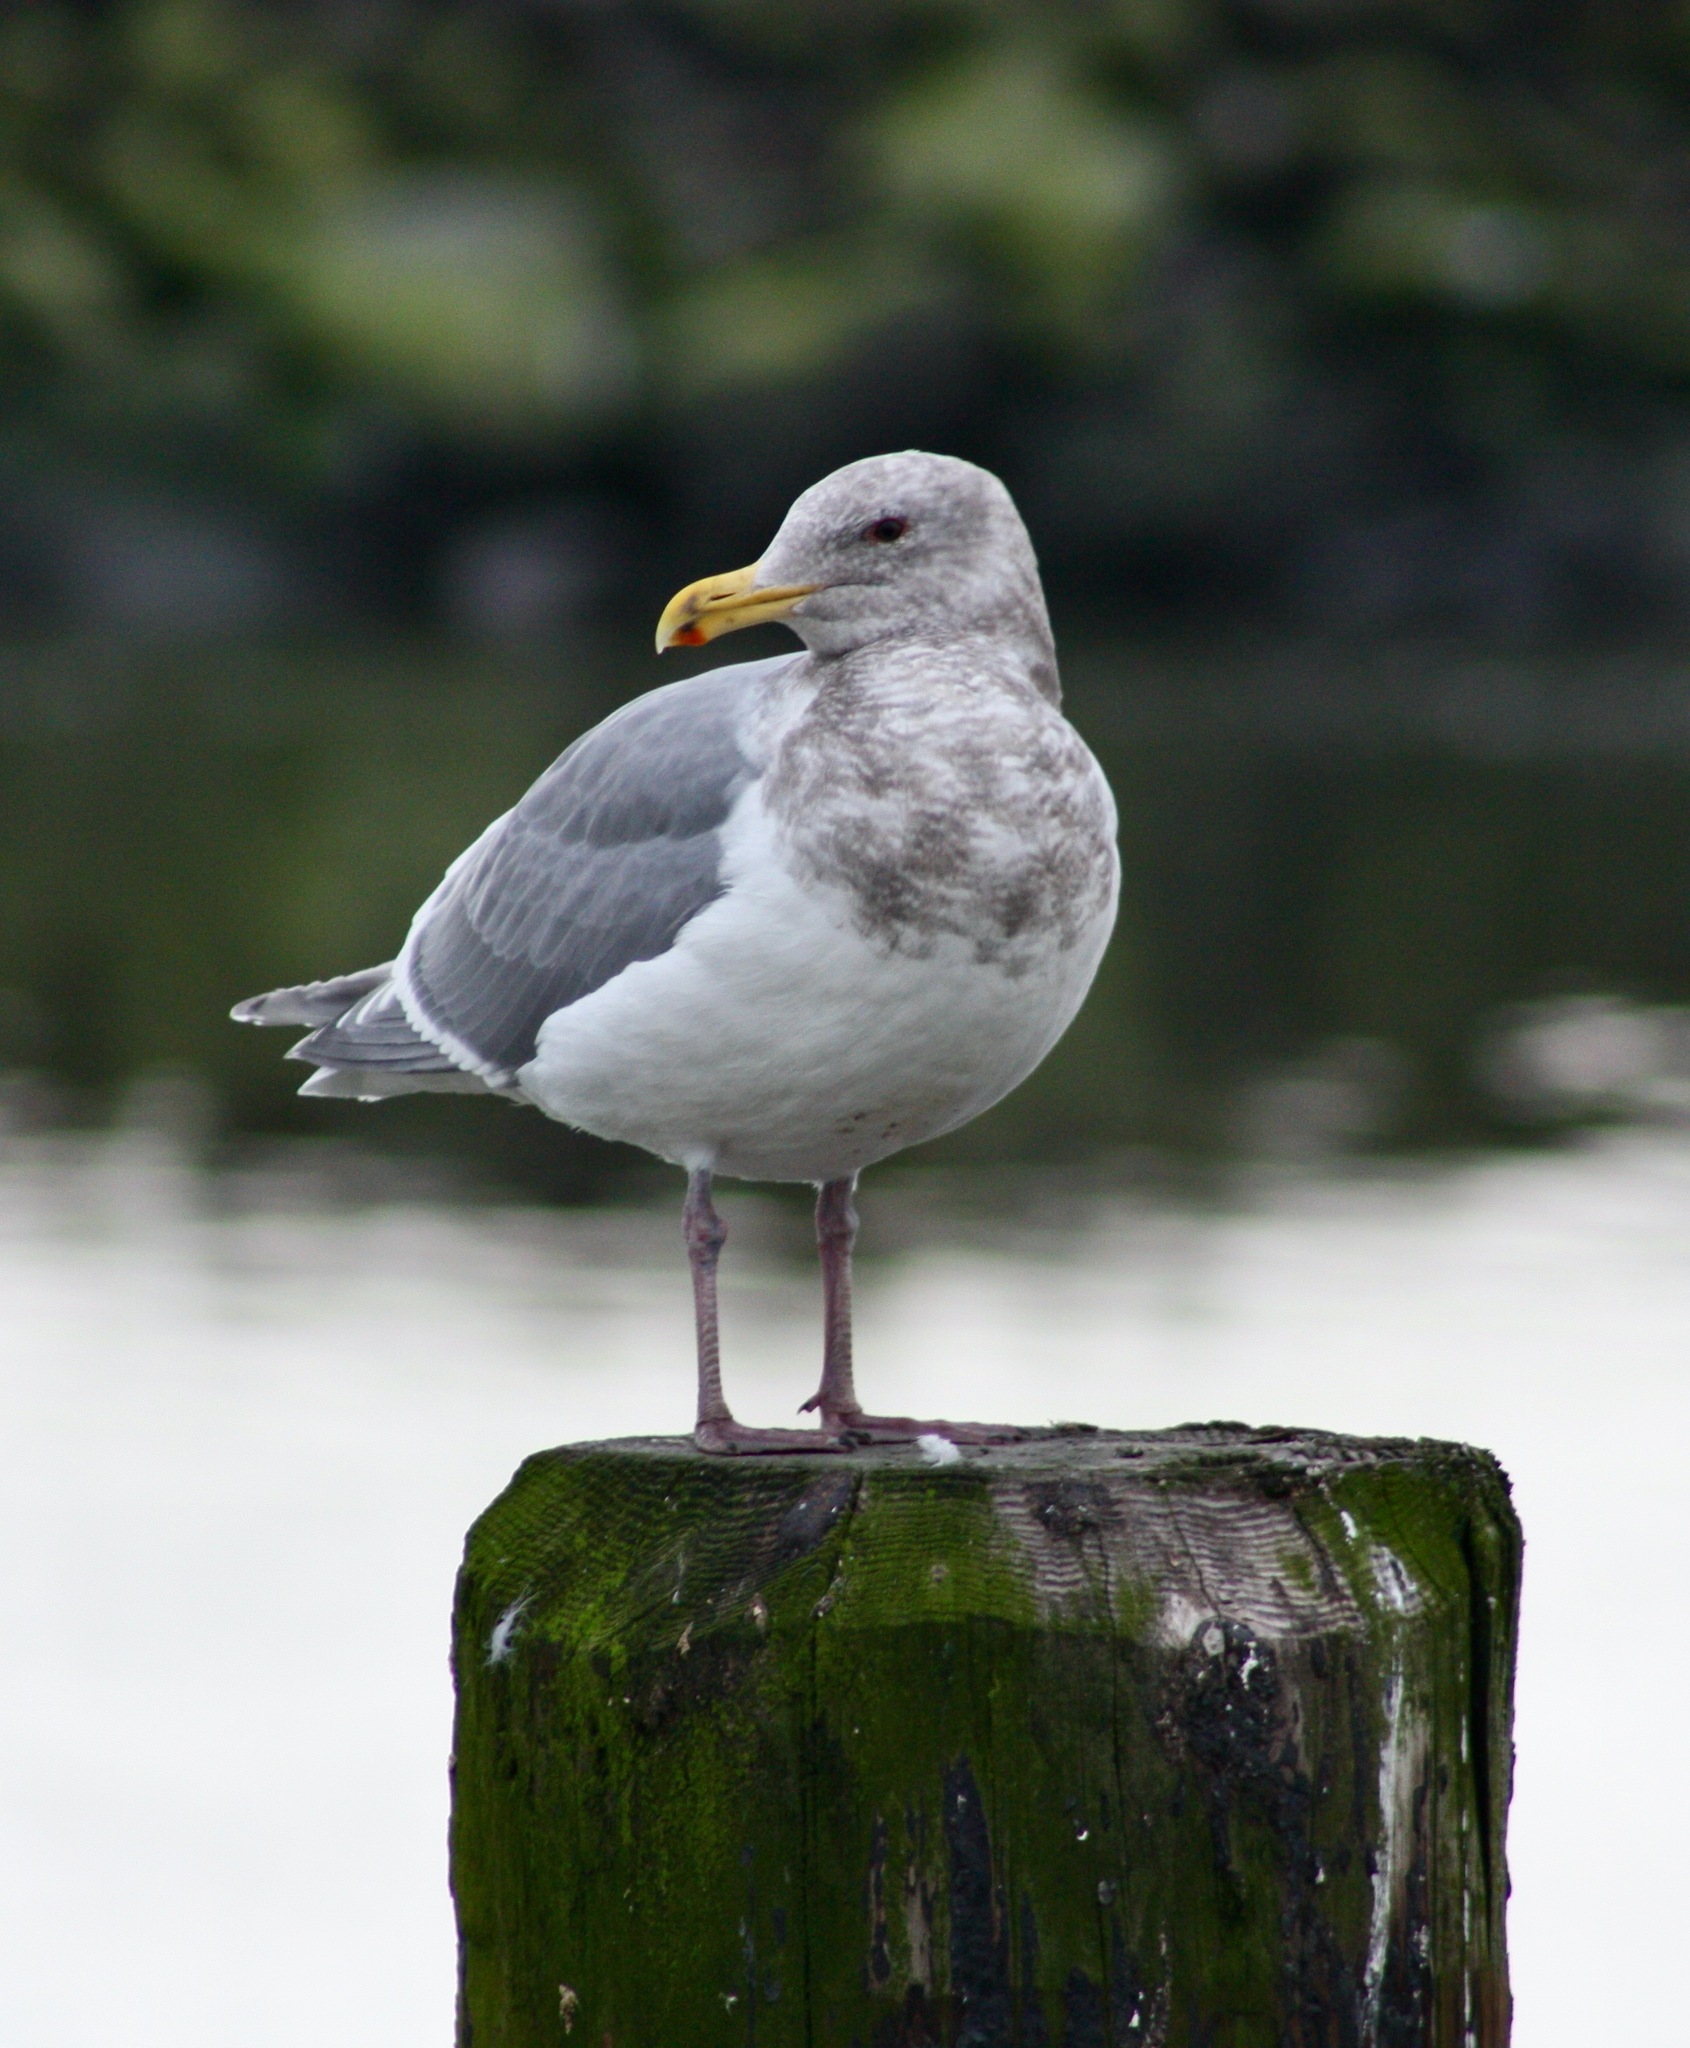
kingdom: Animalia
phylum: Chordata
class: Aves
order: Charadriiformes
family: Laridae
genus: Larus
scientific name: Larus
